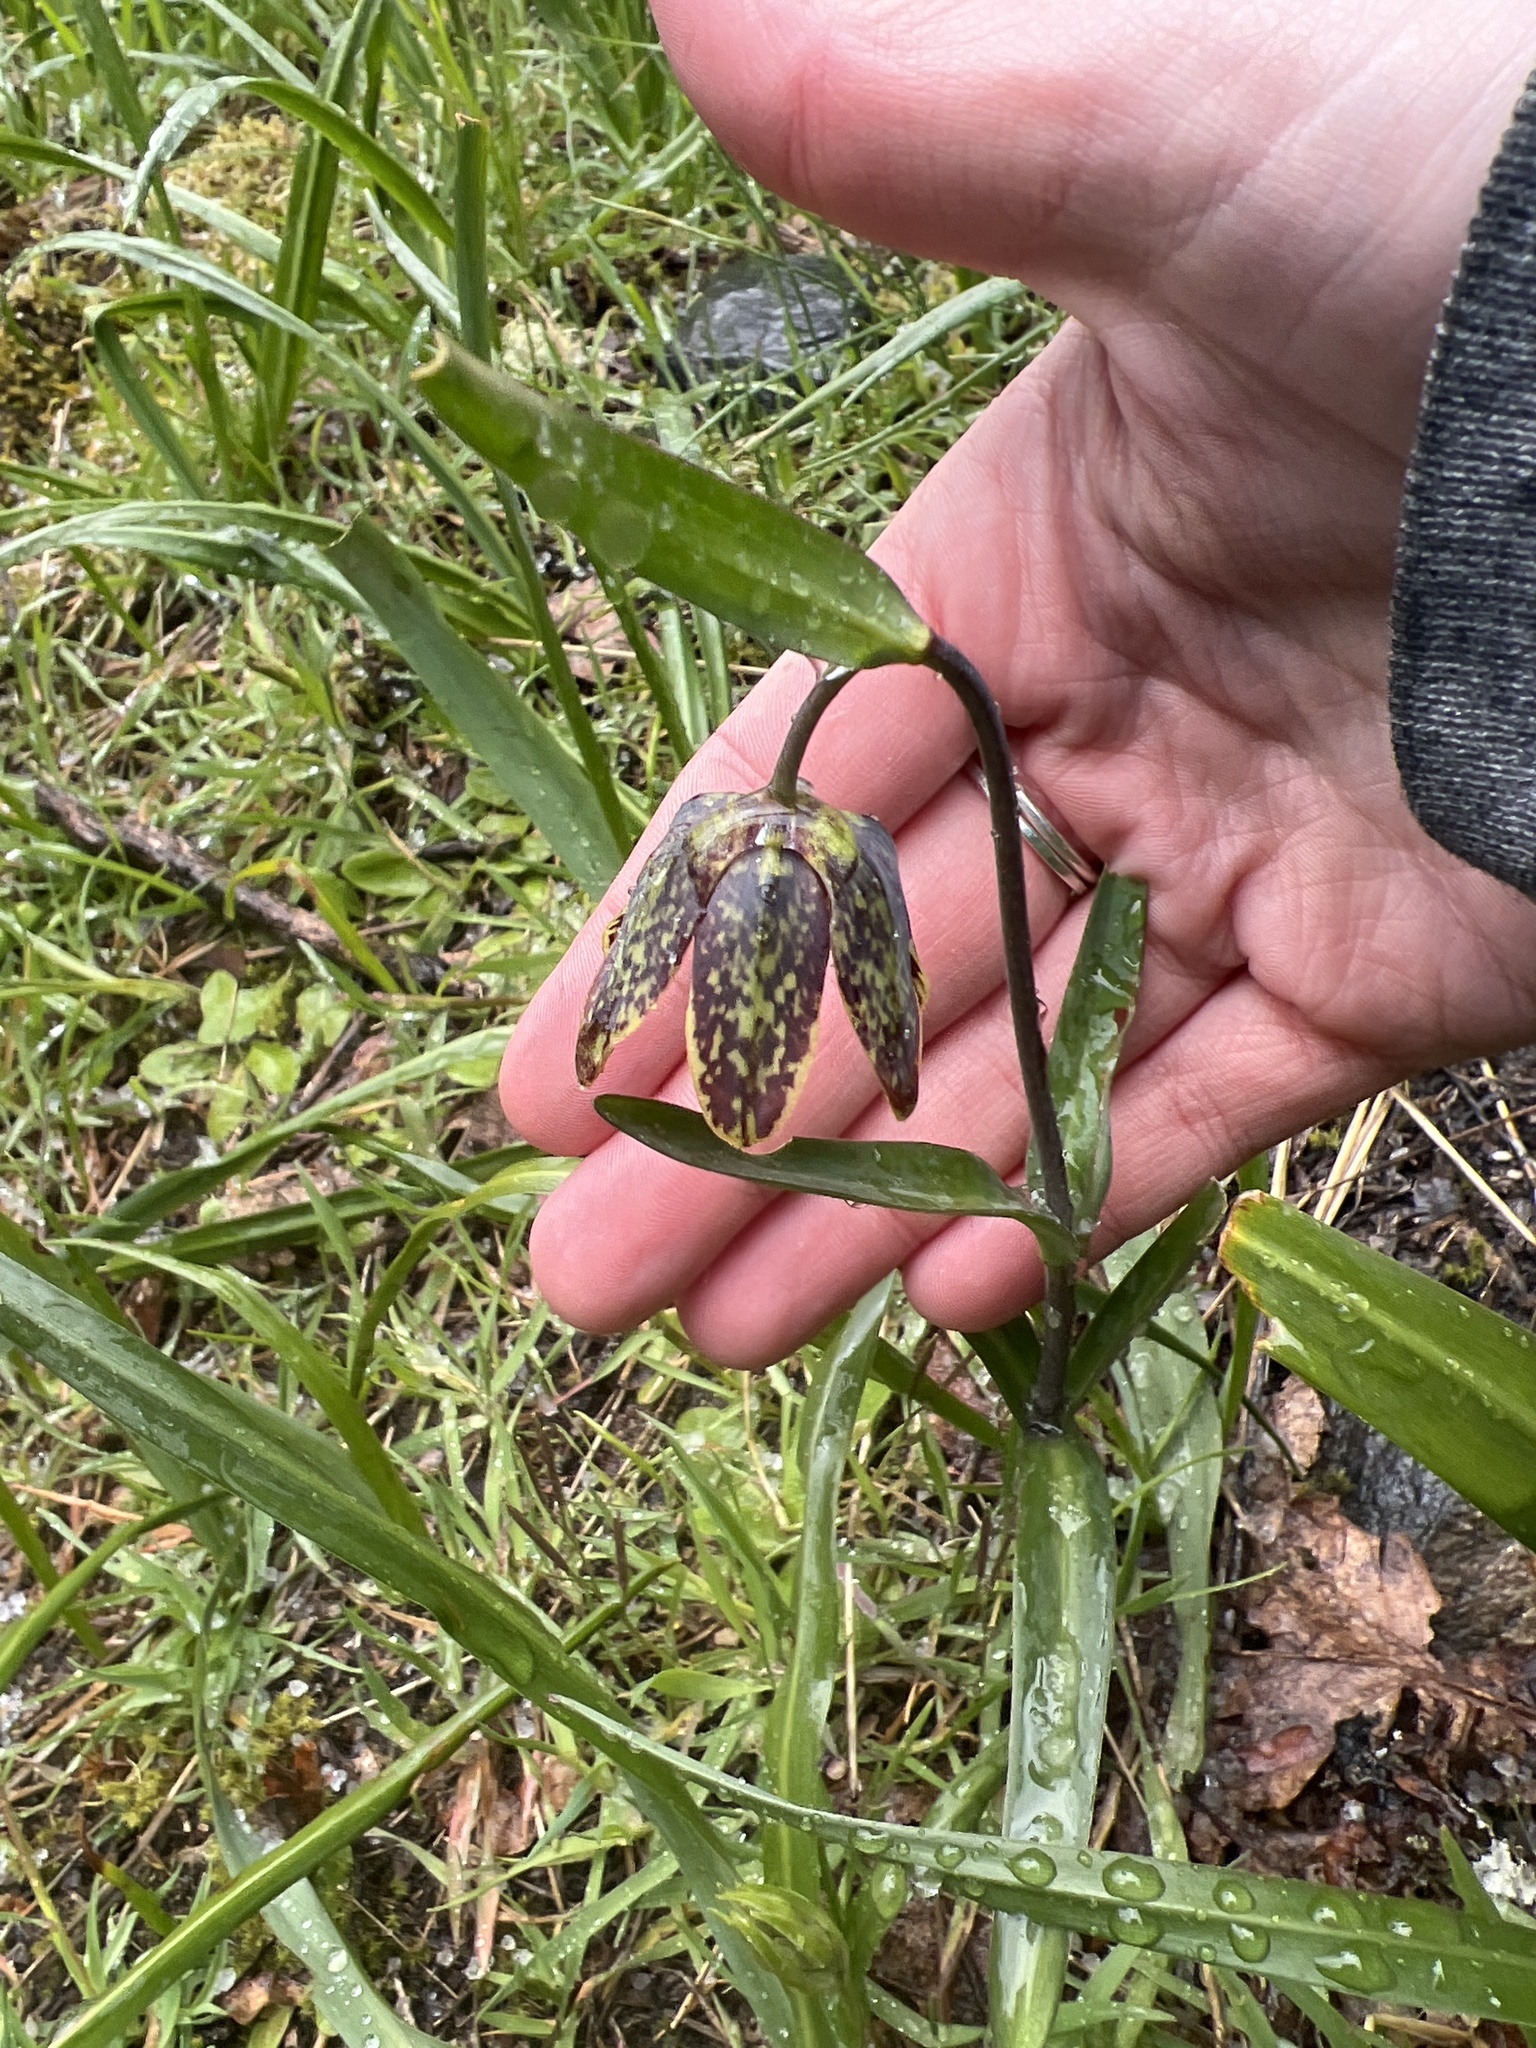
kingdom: Plantae
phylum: Tracheophyta
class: Liliopsida
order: Liliales
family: Liliaceae
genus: Fritillaria
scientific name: Fritillaria affinis
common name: Ojai fritillary
